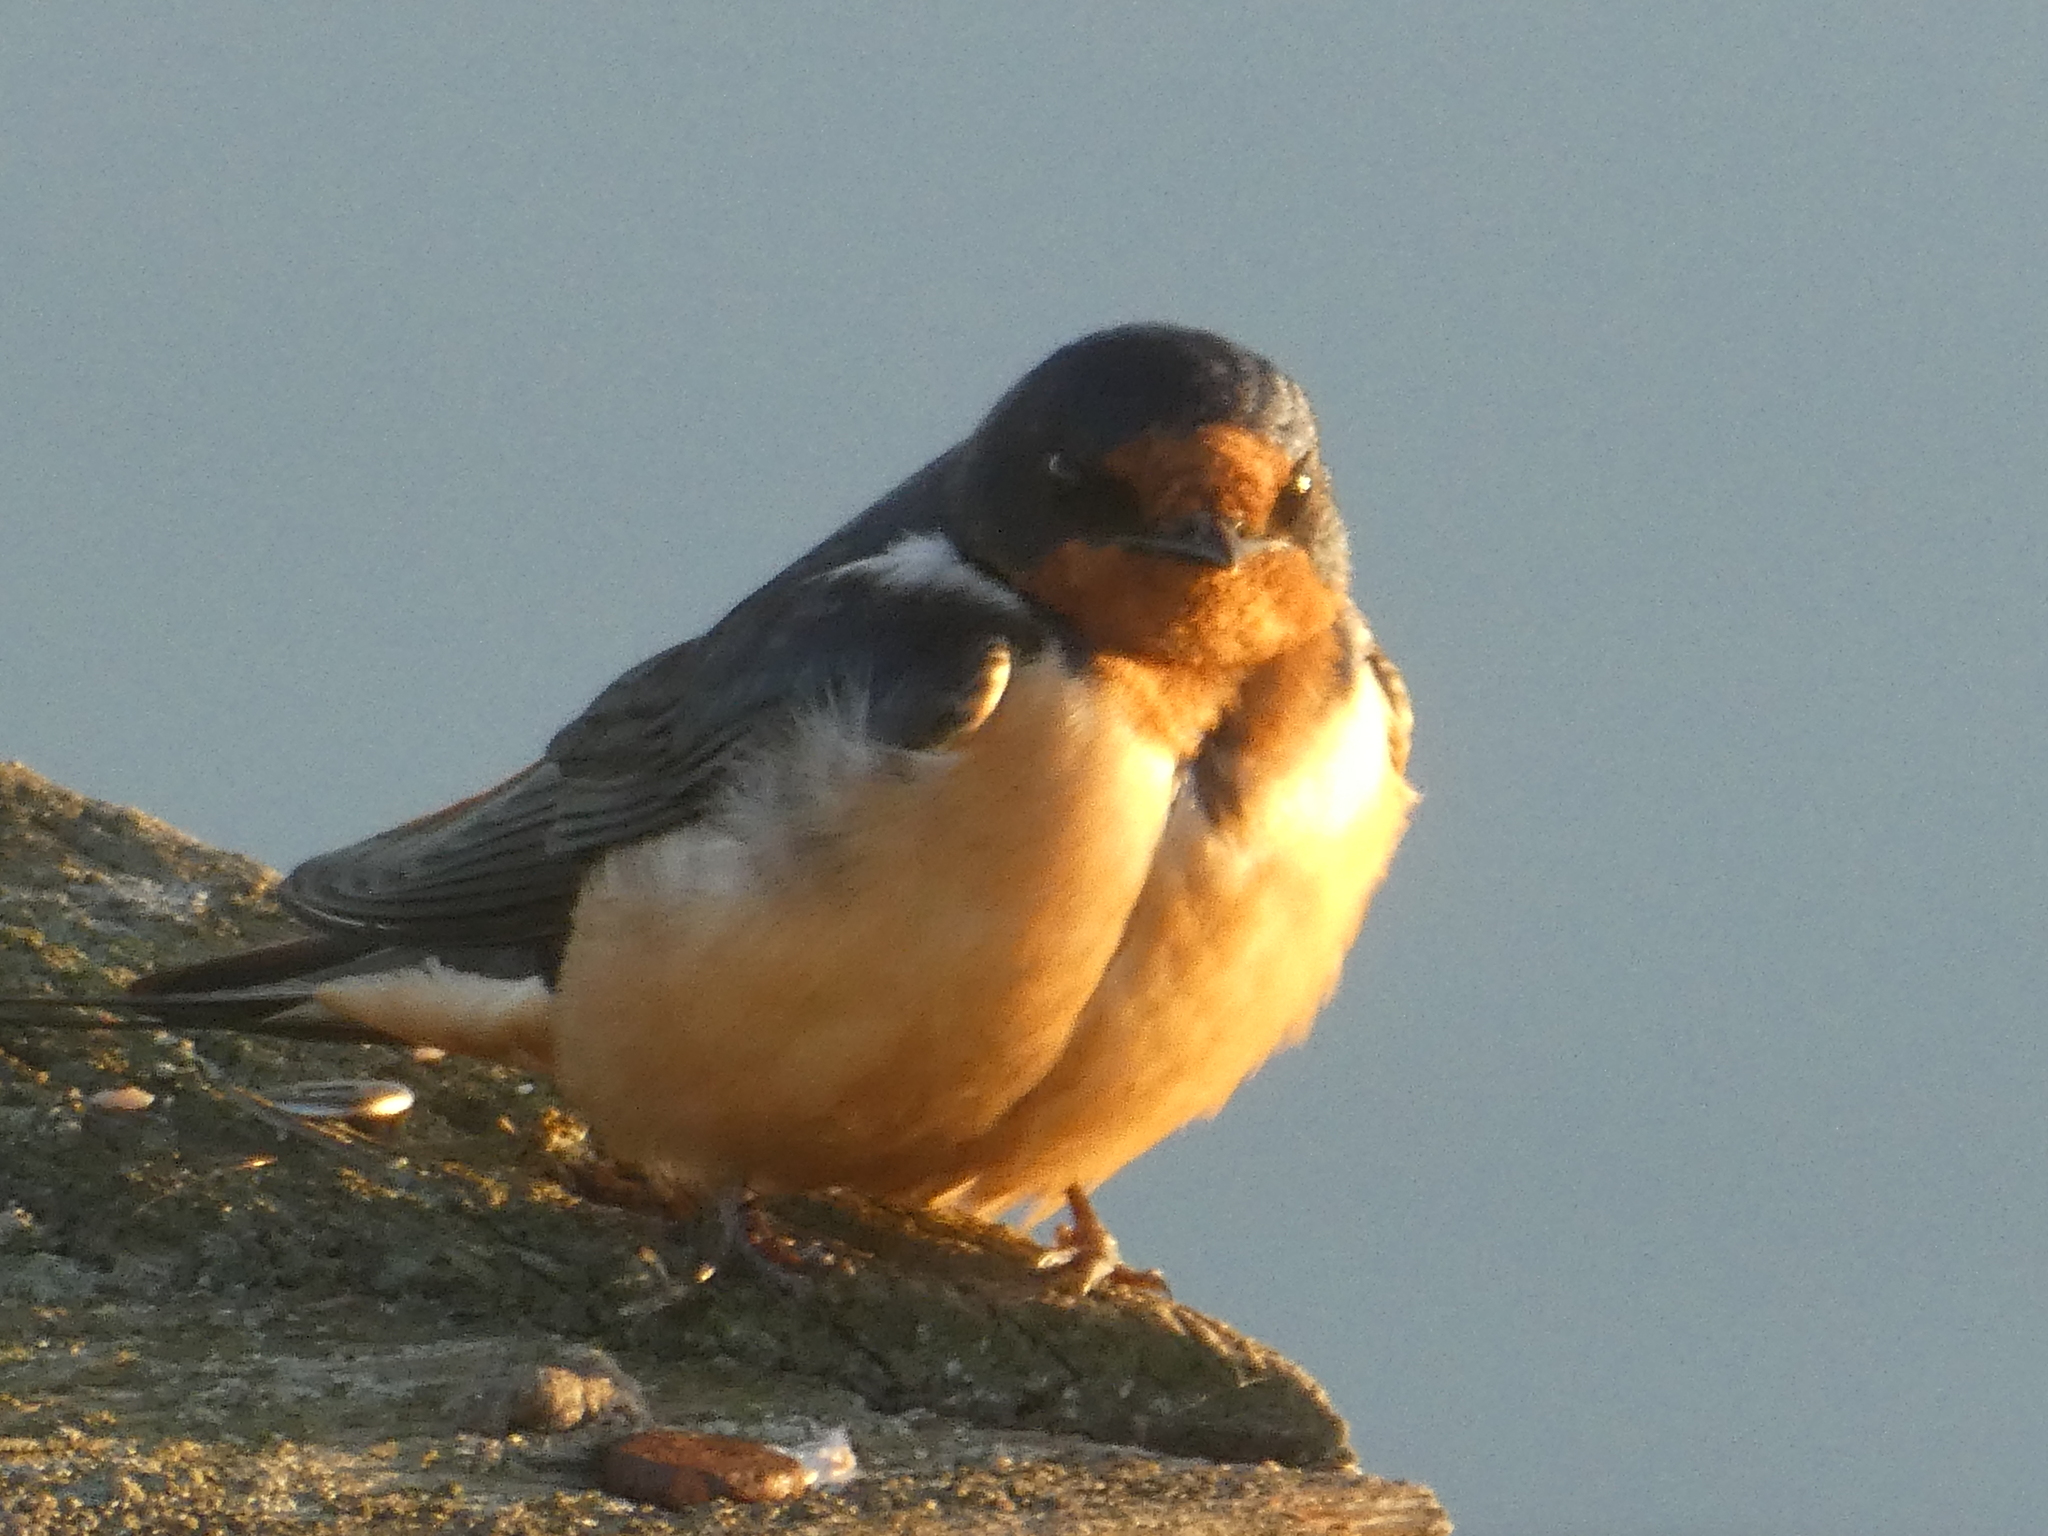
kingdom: Animalia
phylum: Chordata
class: Aves
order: Passeriformes
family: Hirundinidae
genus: Hirundo
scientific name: Hirundo rustica
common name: Barn swallow
